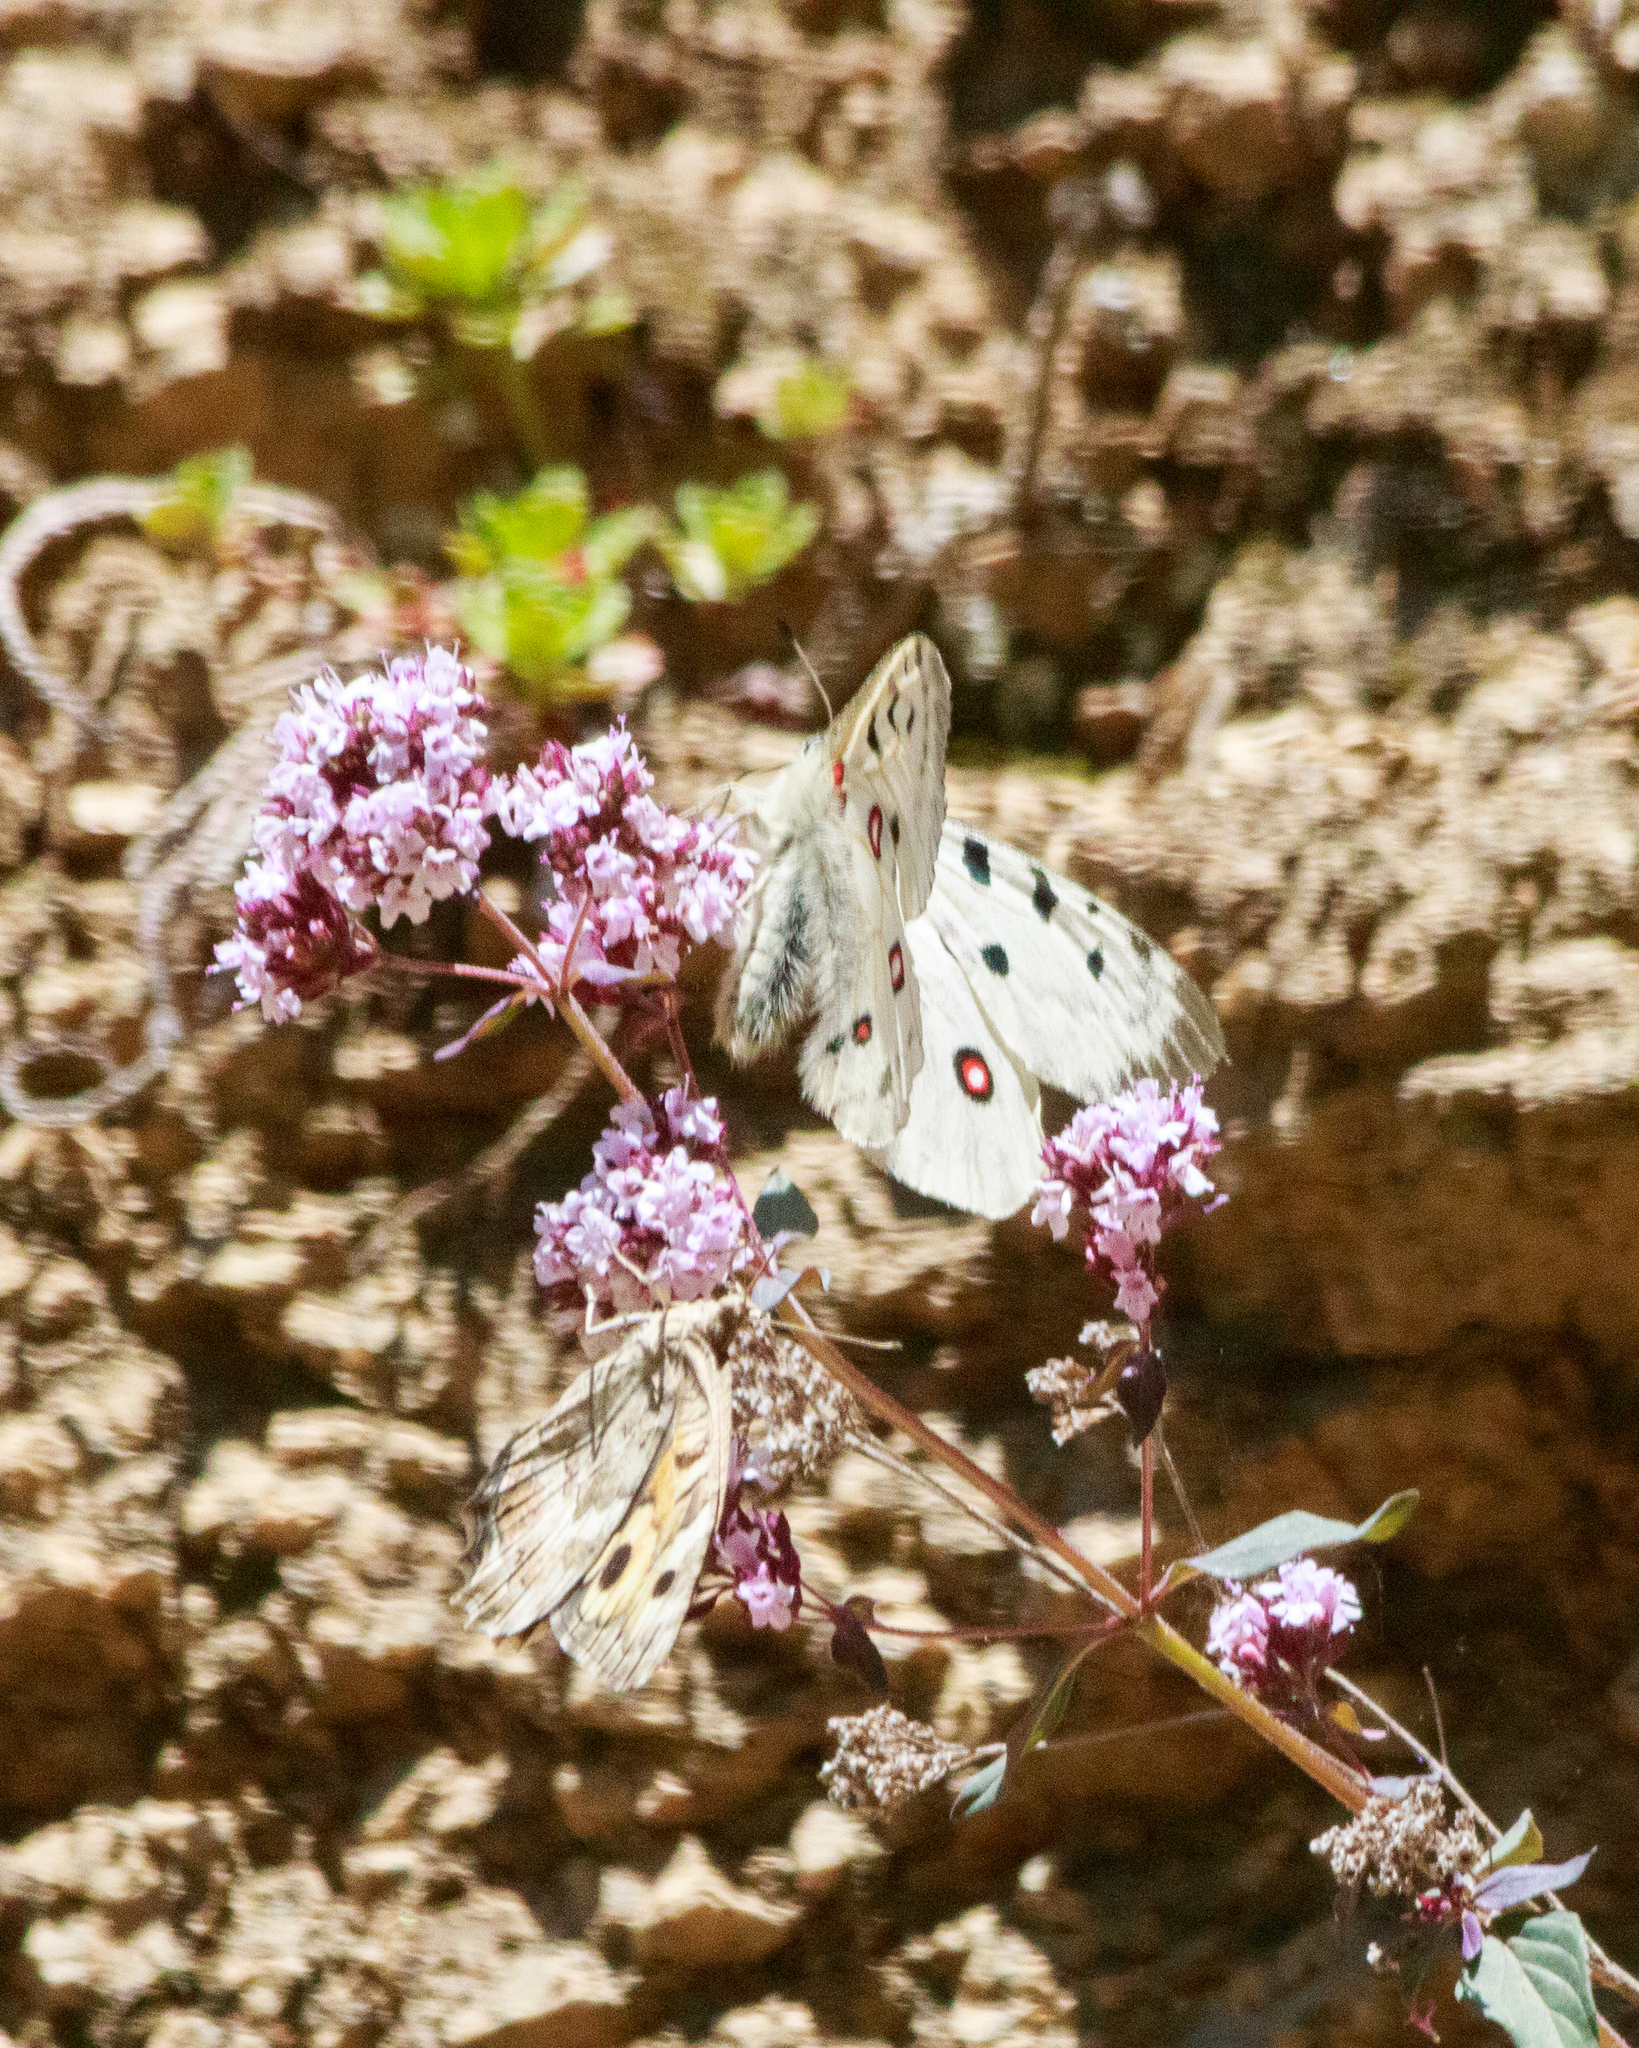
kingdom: Animalia
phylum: Arthropoda
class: Insecta
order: Lepidoptera
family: Papilionidae
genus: Parnassius
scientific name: Parnassius apollo
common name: Apollo
